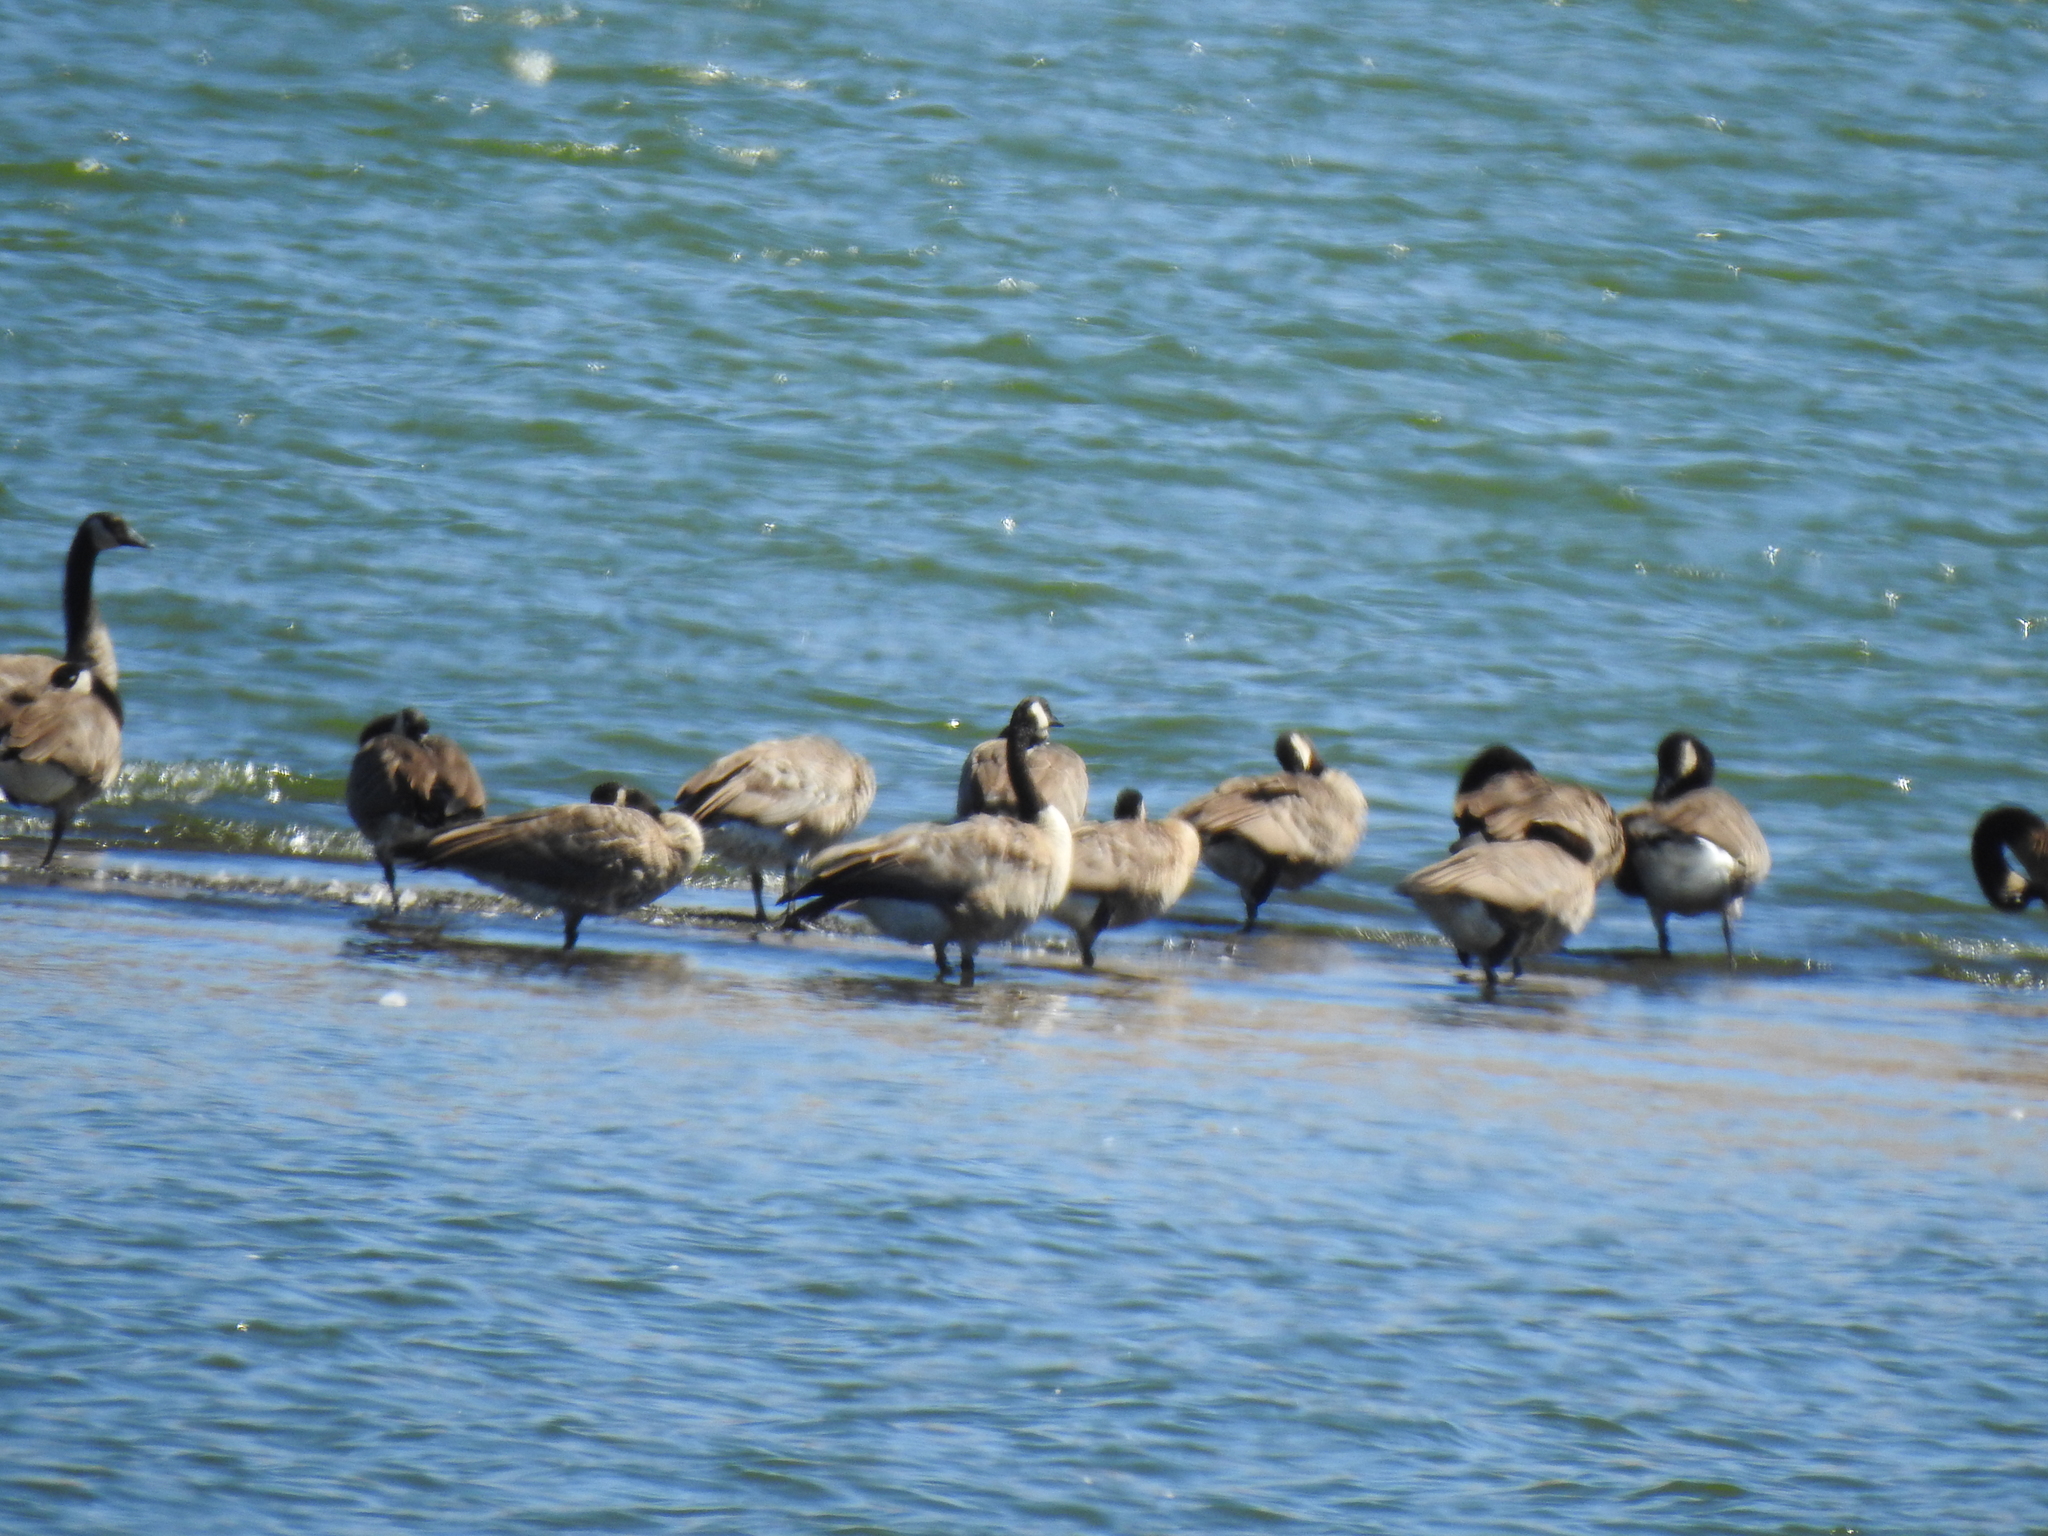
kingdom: Animalia
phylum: Chordata
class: Aves
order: Anseriformes
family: Anatidae
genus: Branta
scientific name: Branta canadensis
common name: Canada goose
